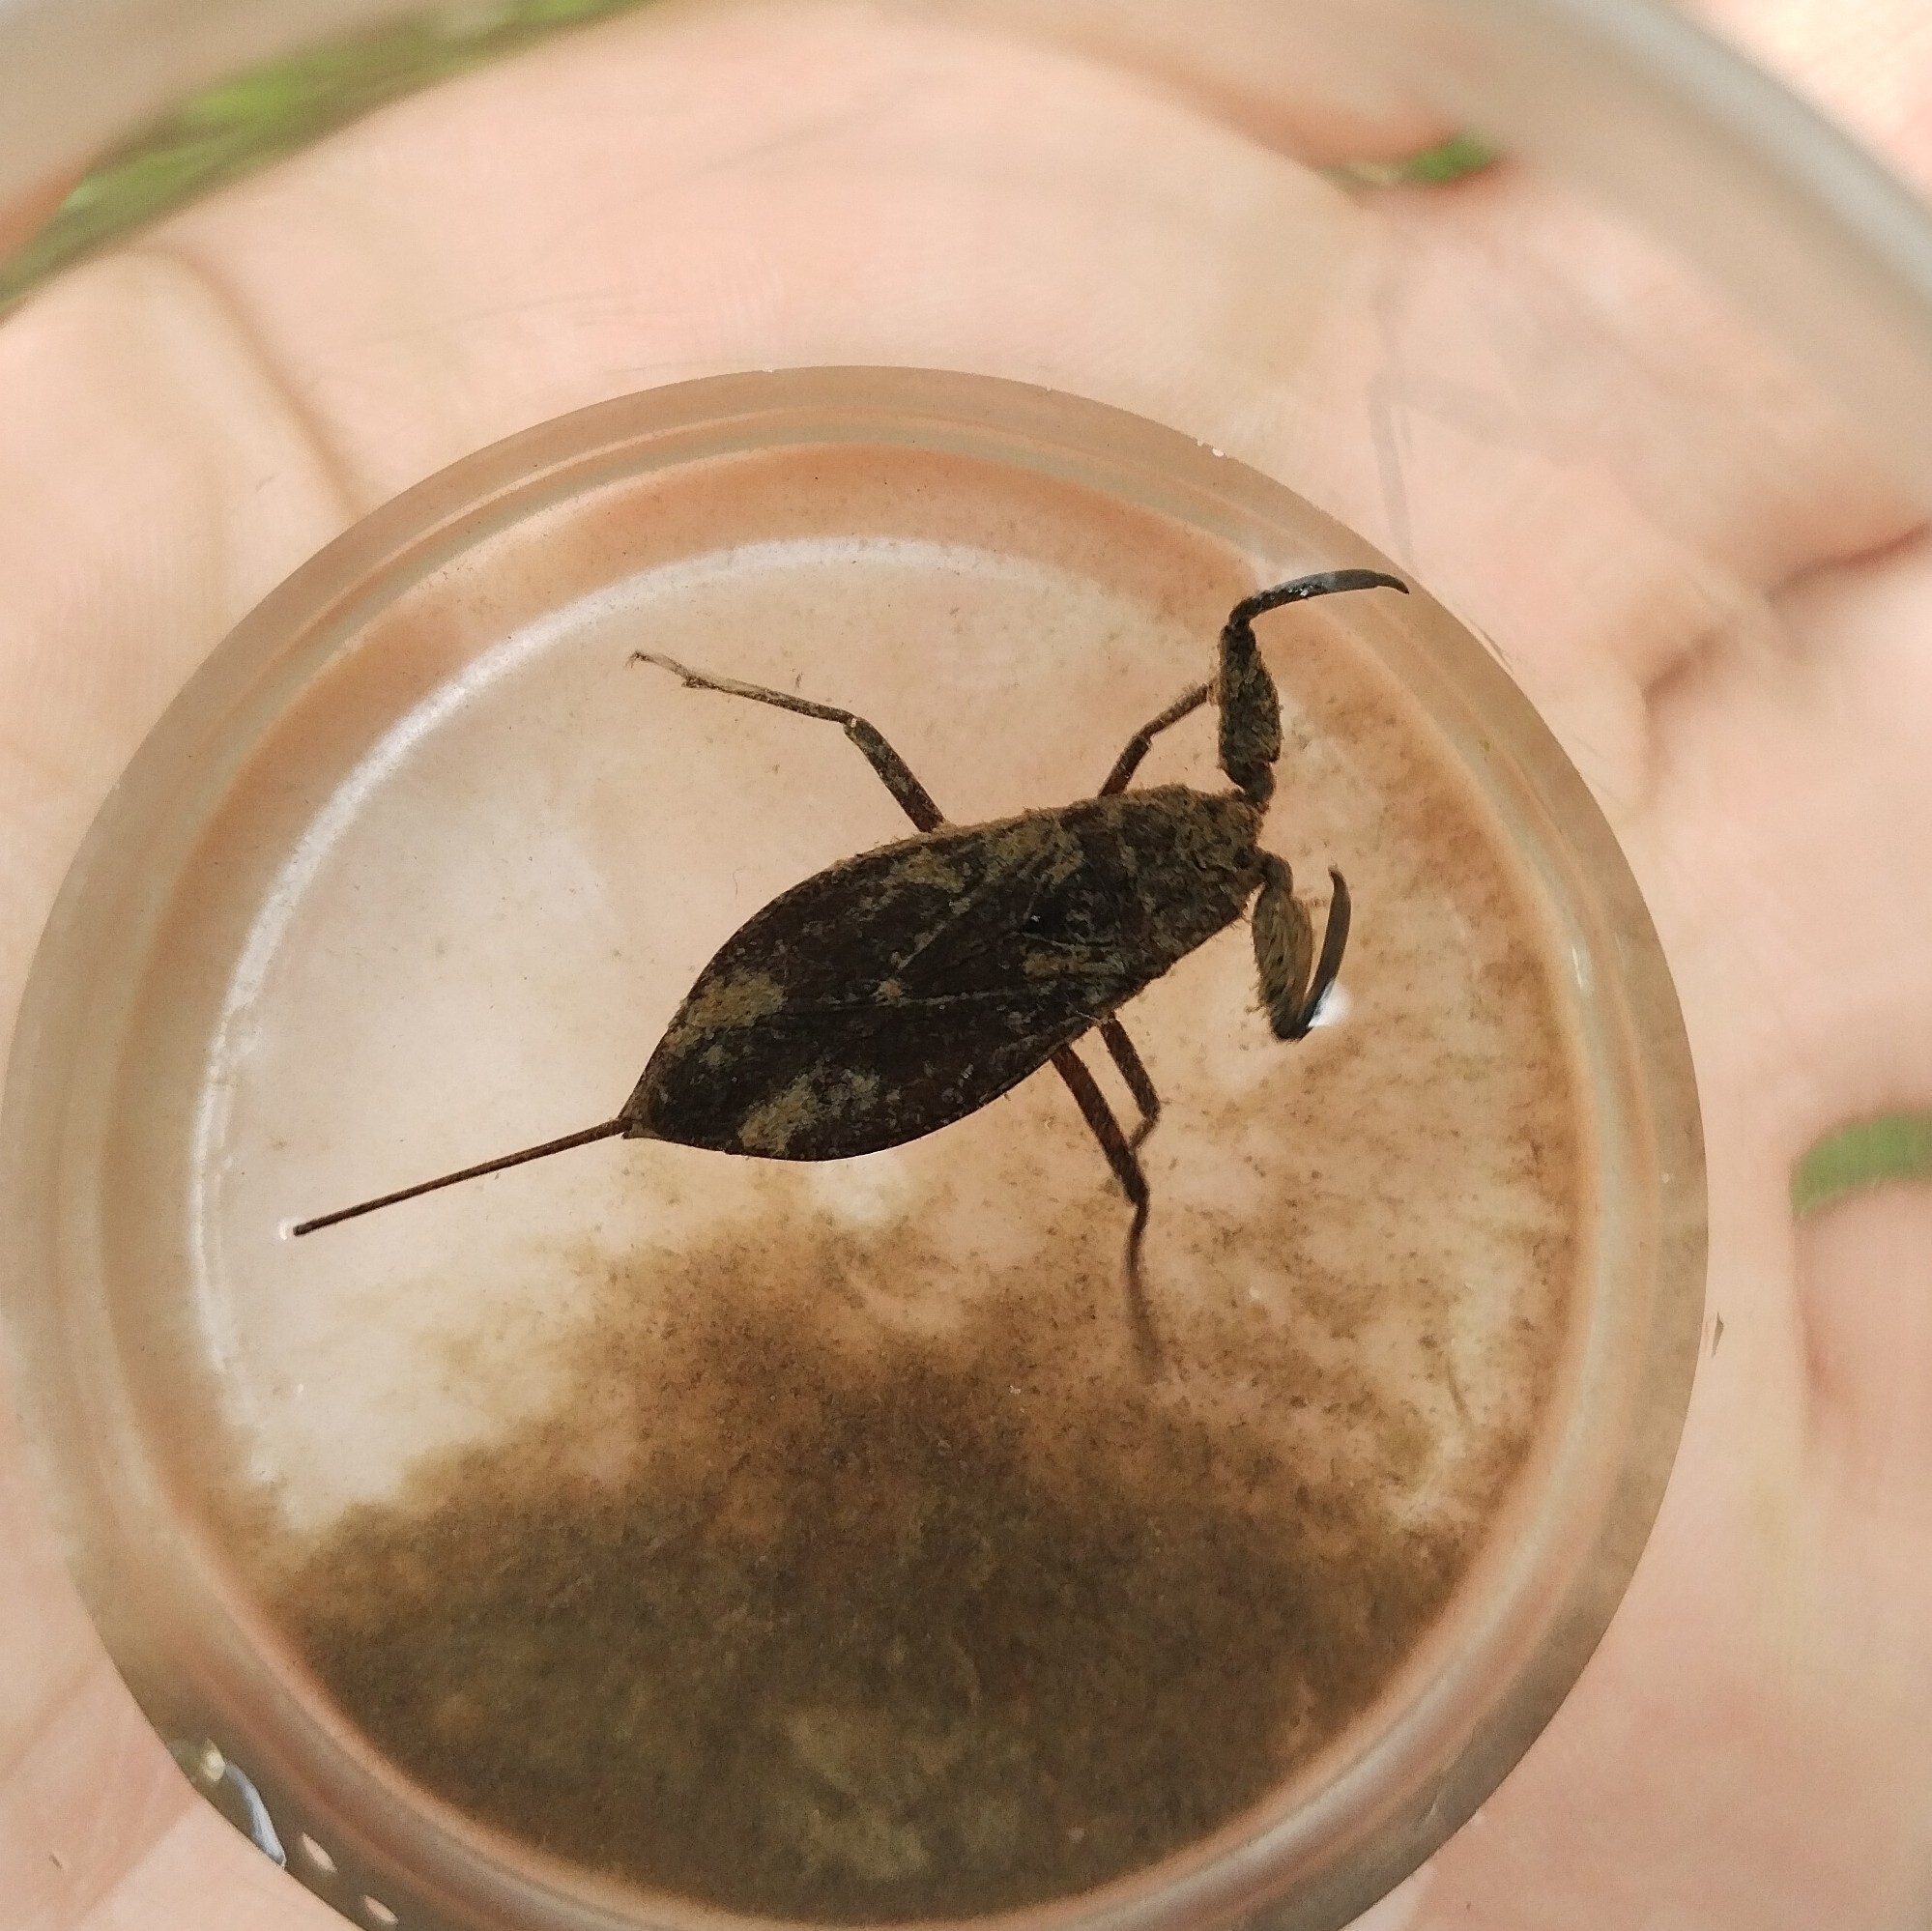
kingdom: Animalia
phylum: Arthropoda
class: Insecta
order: Hemiptera
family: Nepidae
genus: Nepa
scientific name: Nepa cinerea
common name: Water scorpion
